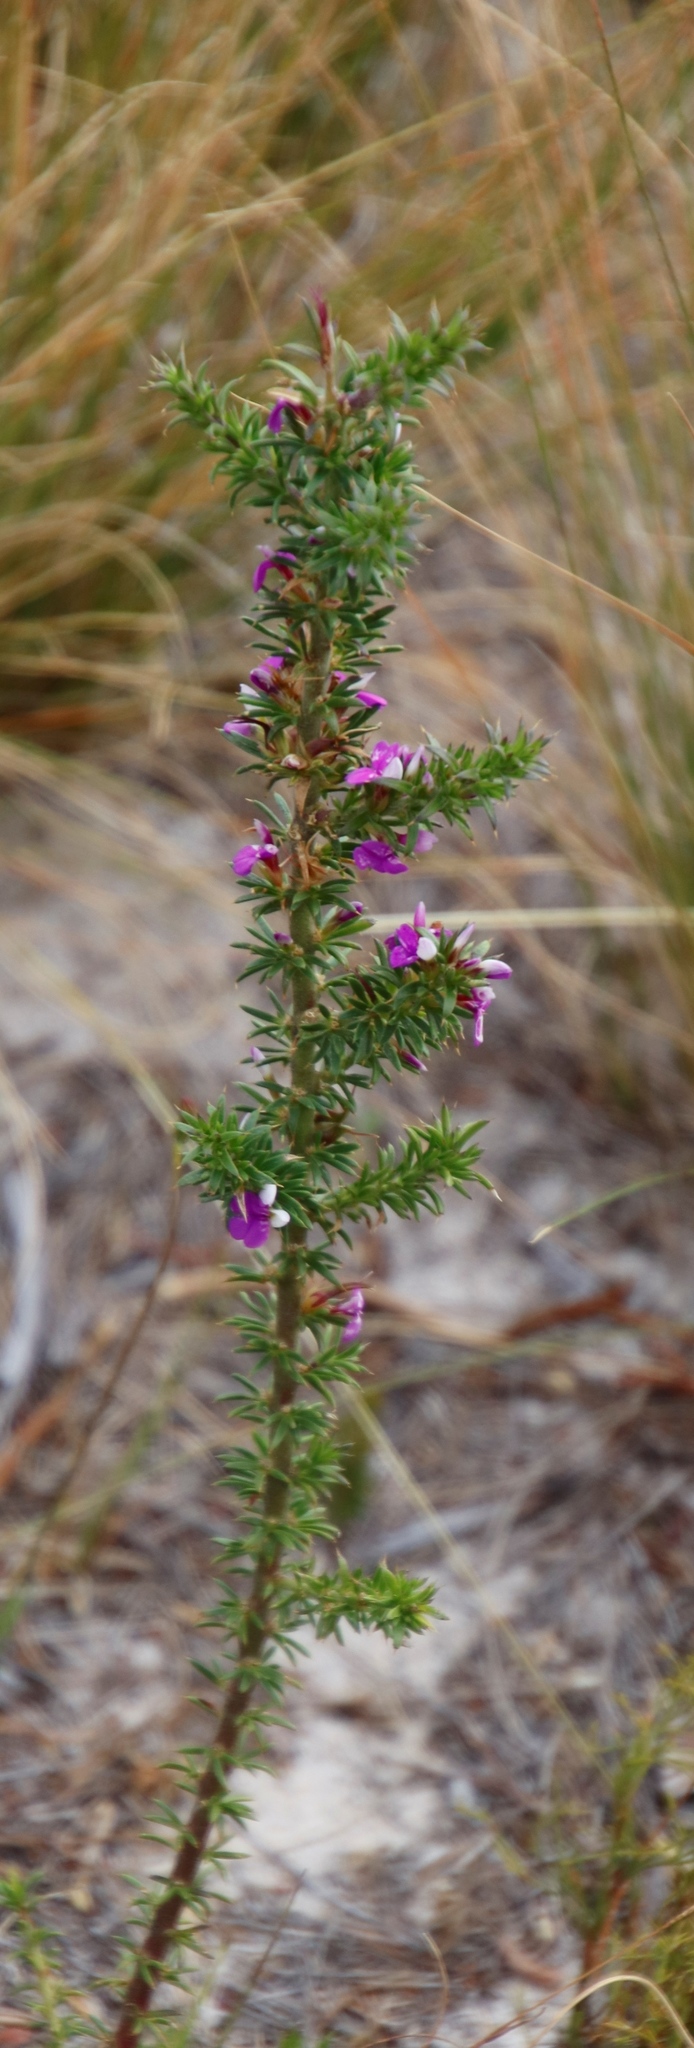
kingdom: Plantae
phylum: Tracheophyta
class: Magnoliopsida
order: Fabales
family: Polygalaceae
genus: Muraltia
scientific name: Muraltia heisteria
